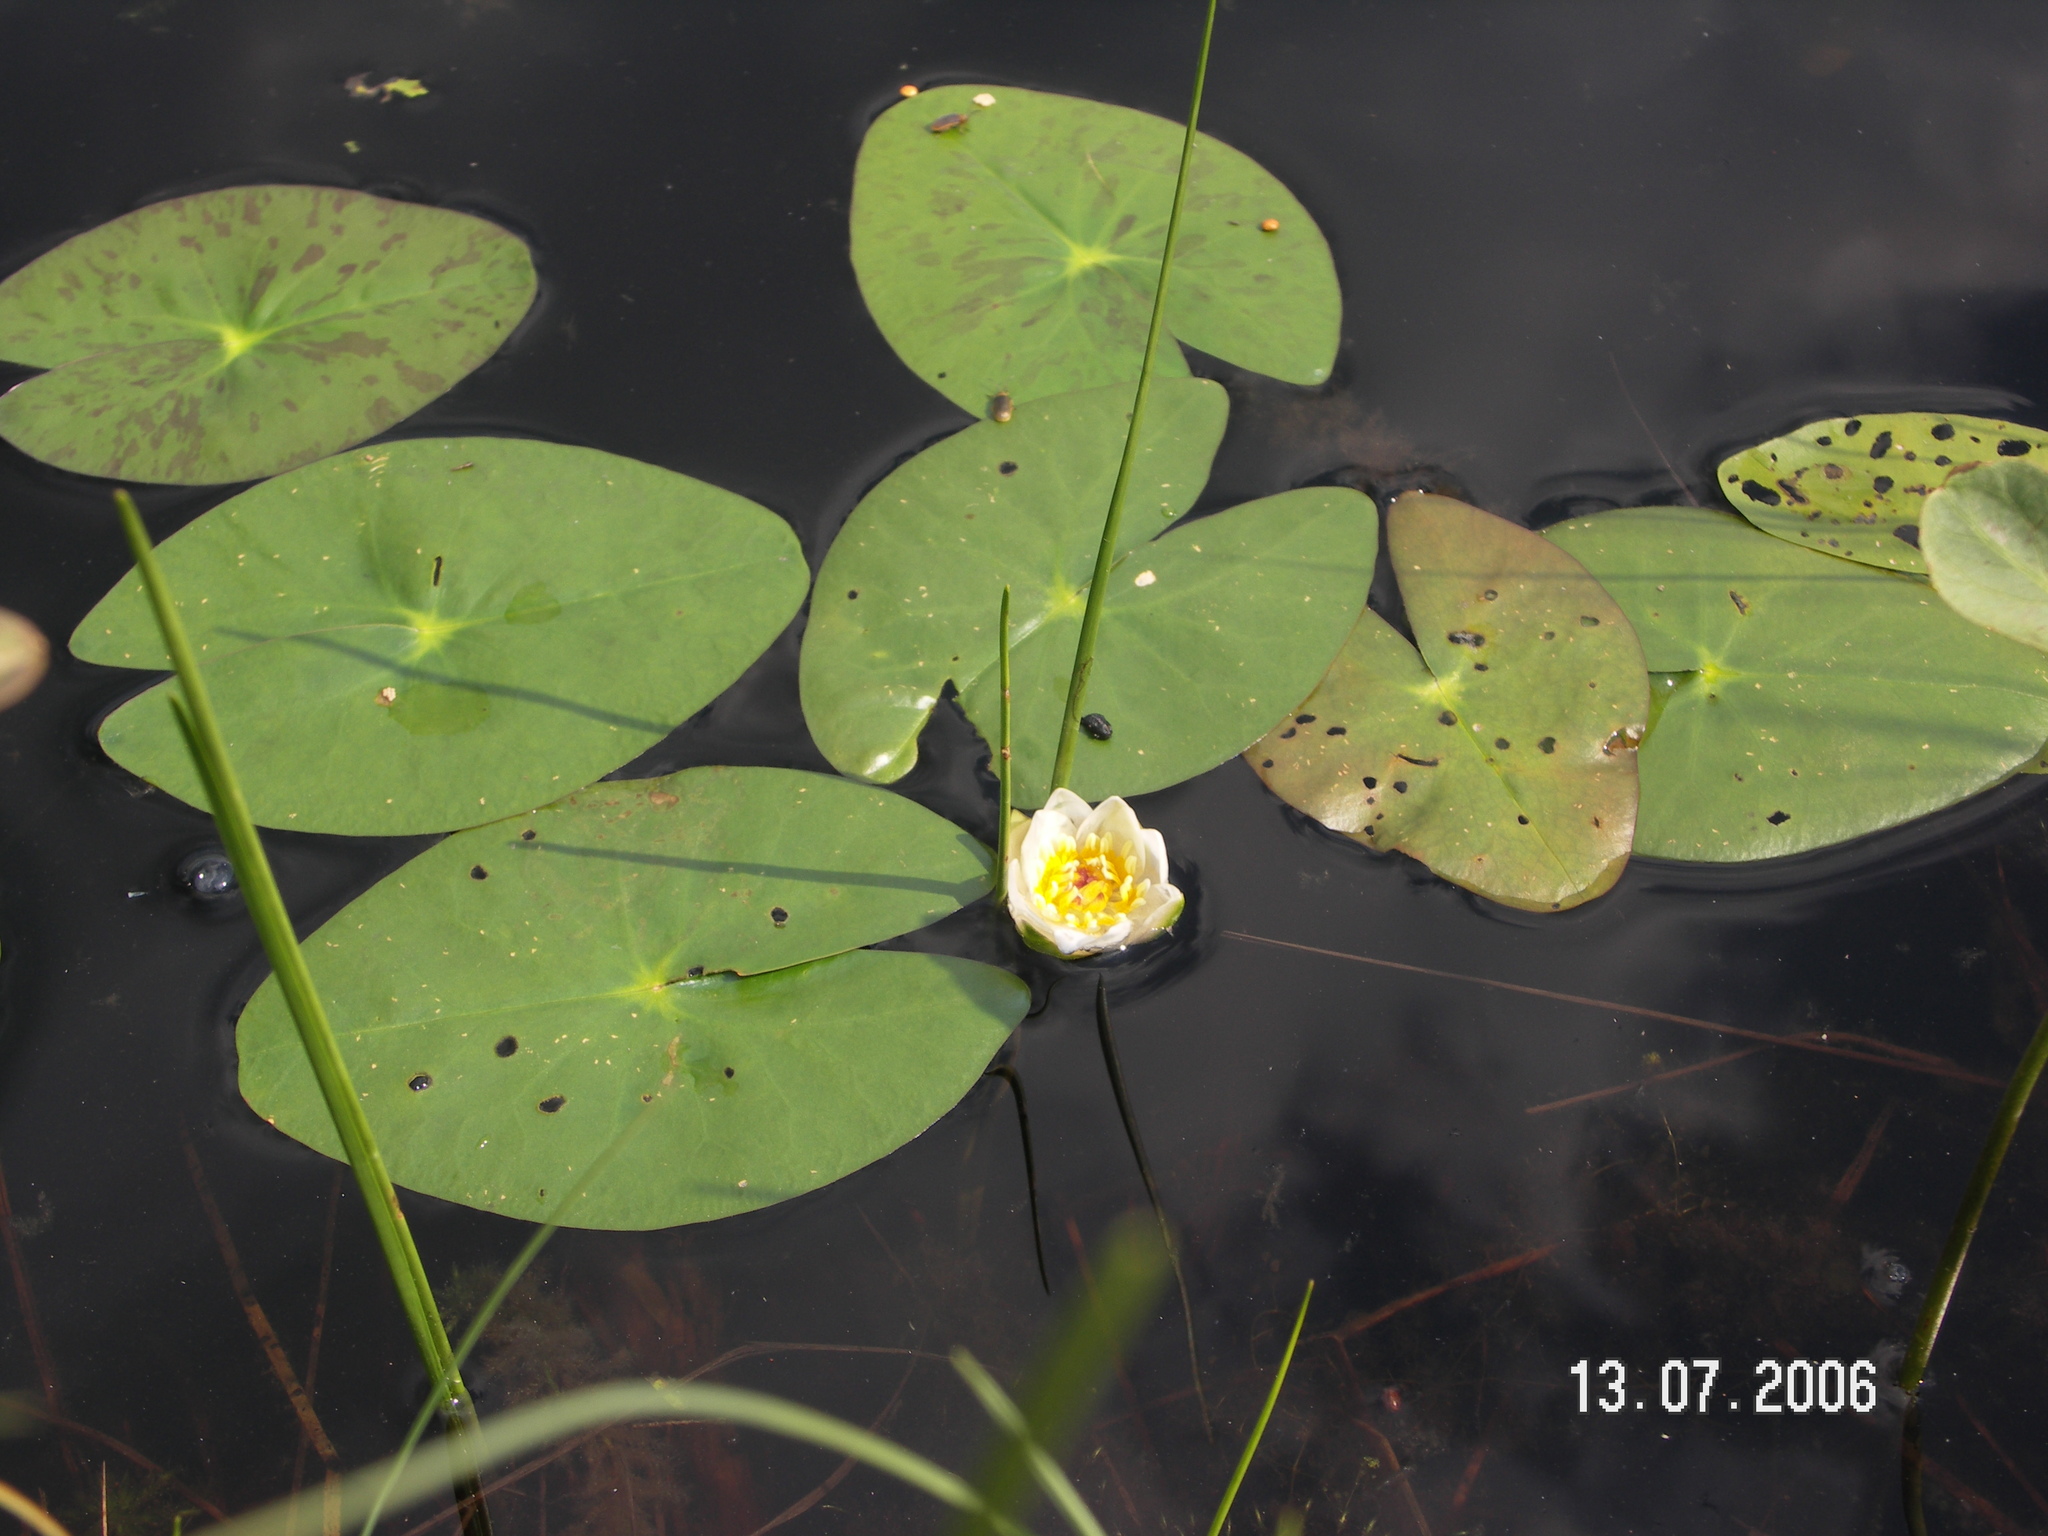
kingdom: Plantae
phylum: Tracheophyta
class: Magnoliopsida
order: Nymphaeales
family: Nymphaeaceae
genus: Nymphaea
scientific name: Nymphaea tetragona
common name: Pygmy water-lily
